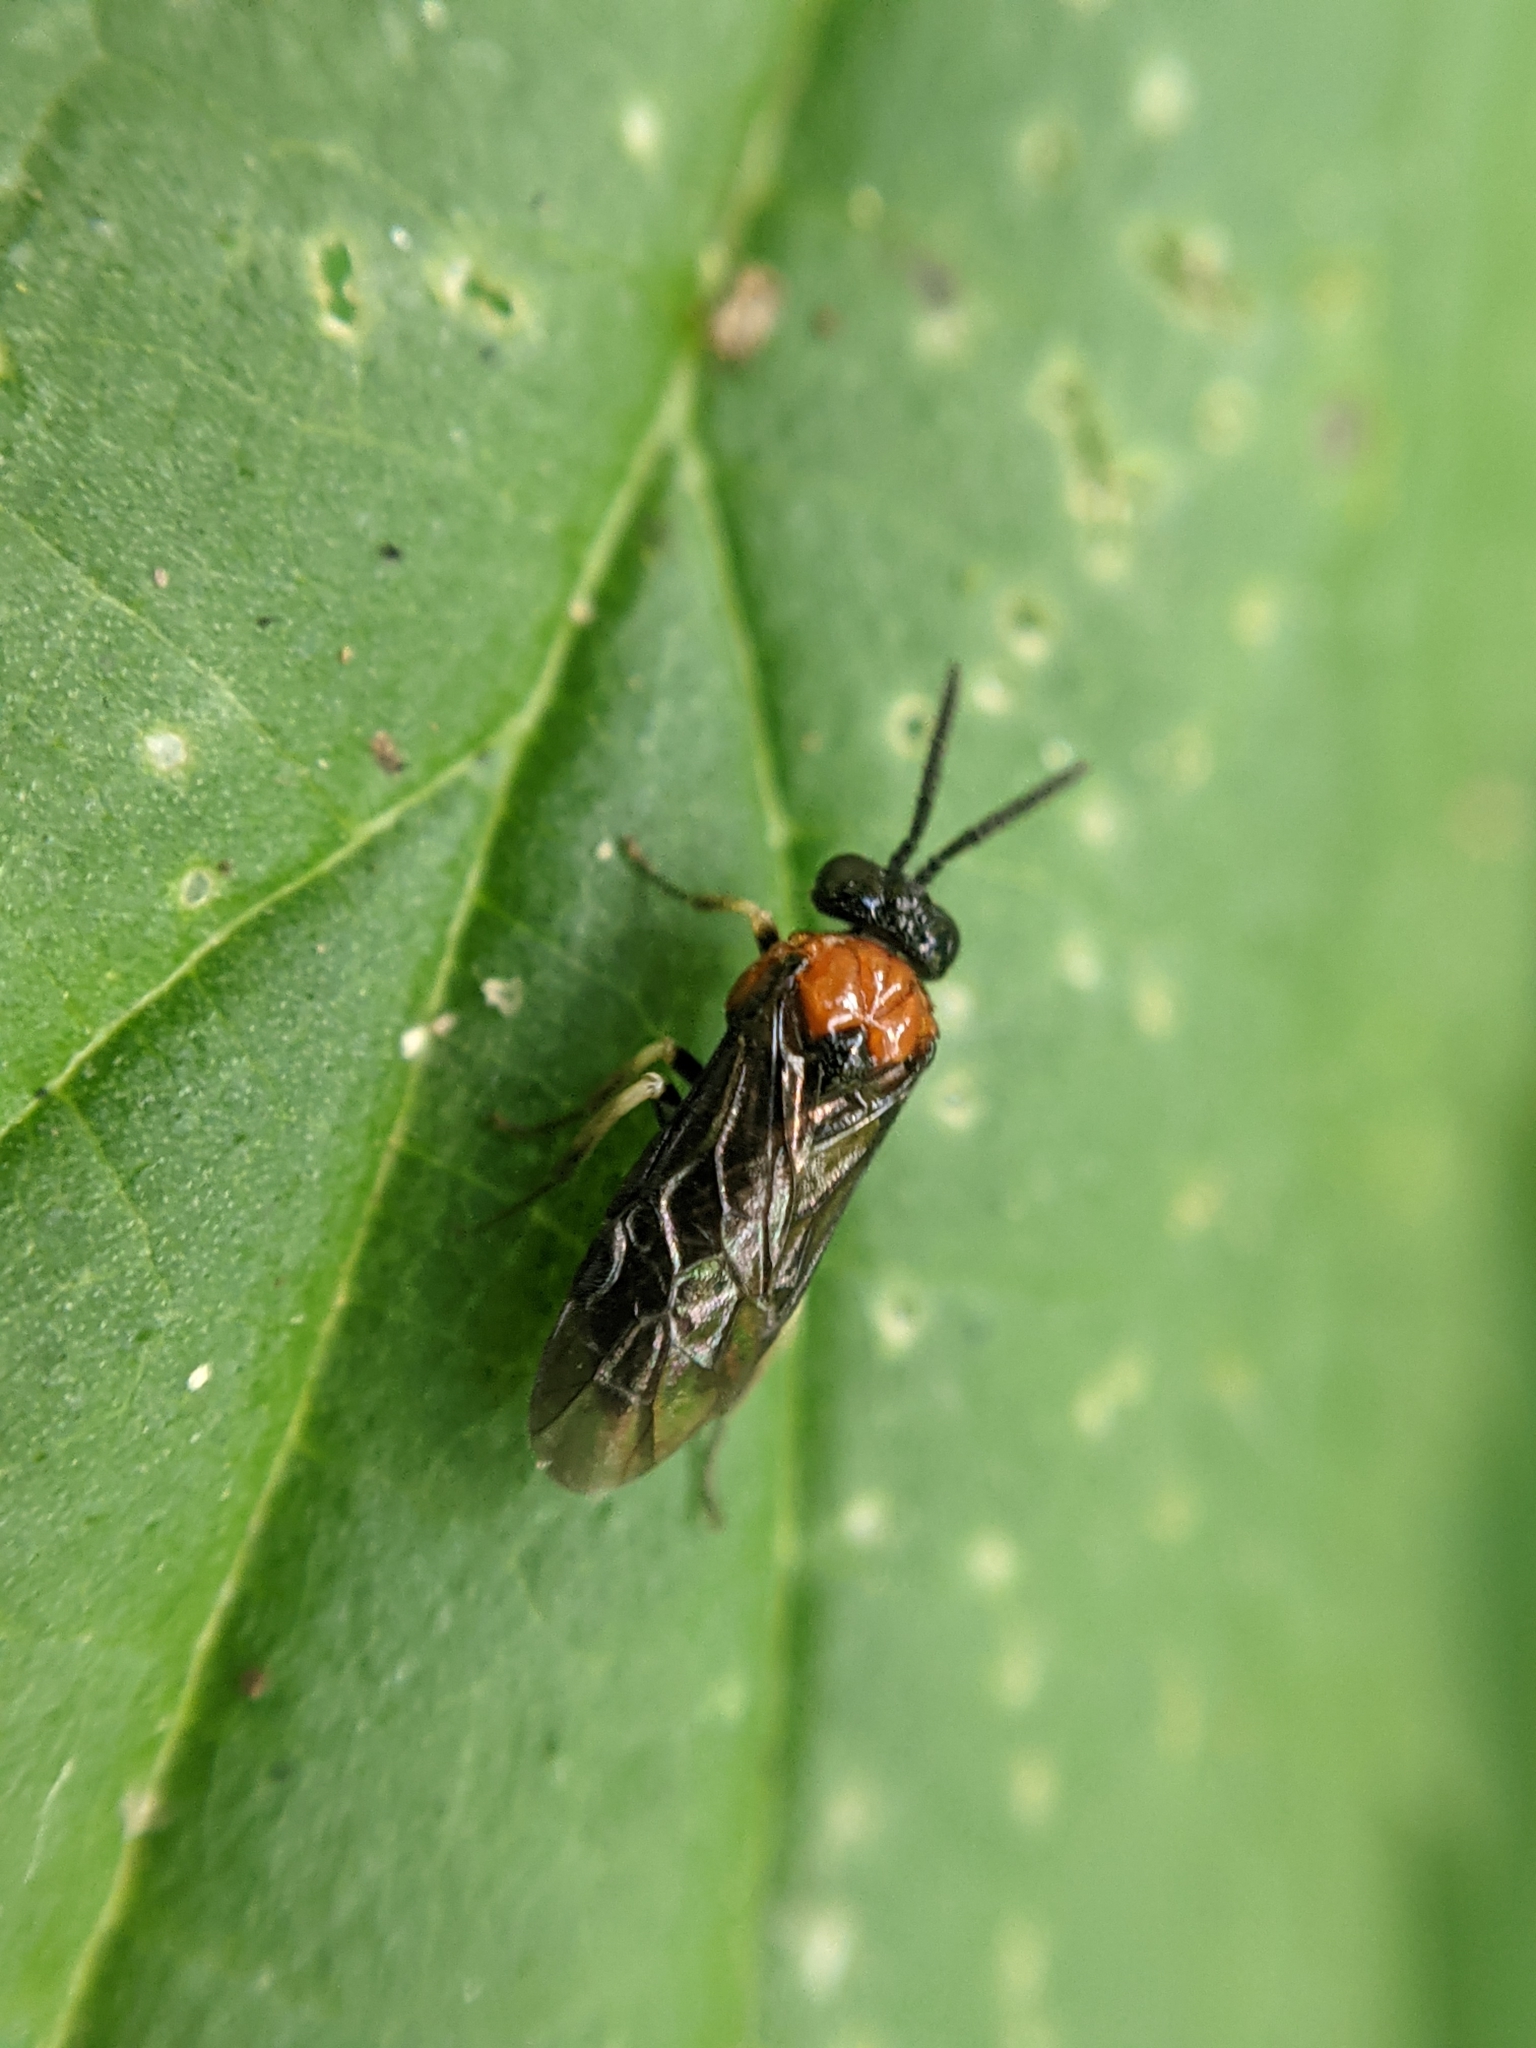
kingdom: Animalia
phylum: Arthropoda
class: Insecta
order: Hymenoptera
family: Tenthredinidae
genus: Eutomostethus
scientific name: Eutomostethus ephippium
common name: Tenthredid wasp
